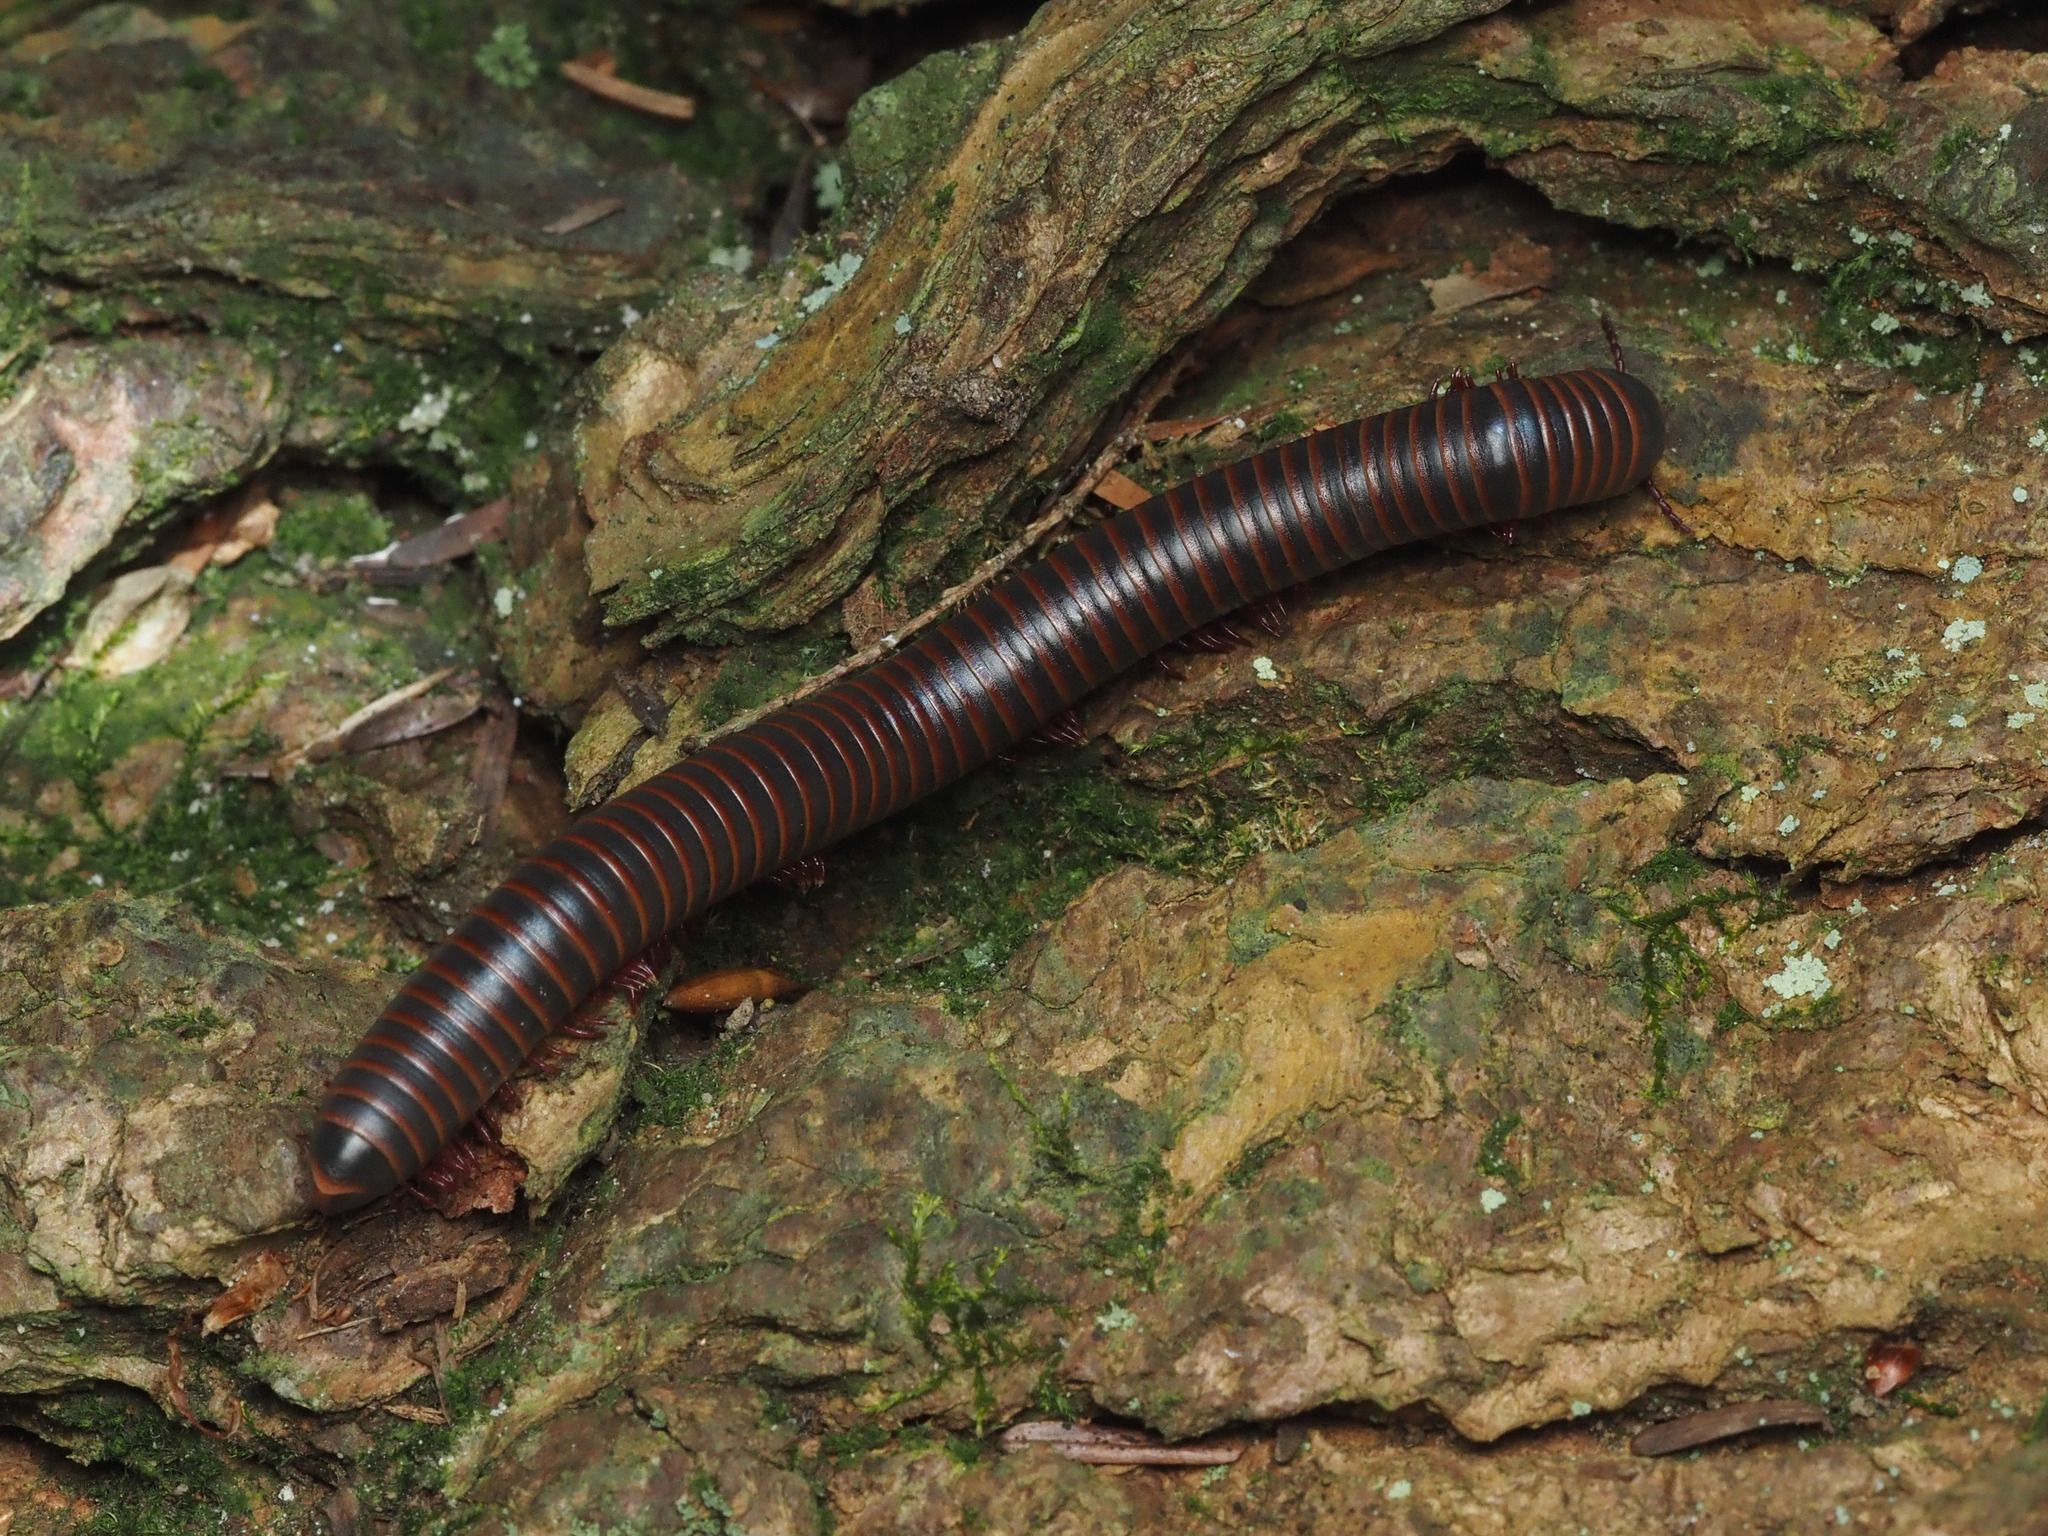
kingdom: Animalia
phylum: Arthropoda
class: Diplopoda
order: Spirobolida
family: Spirobolidae
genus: Narceus
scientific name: Narceus americanus
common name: American giant millipede
